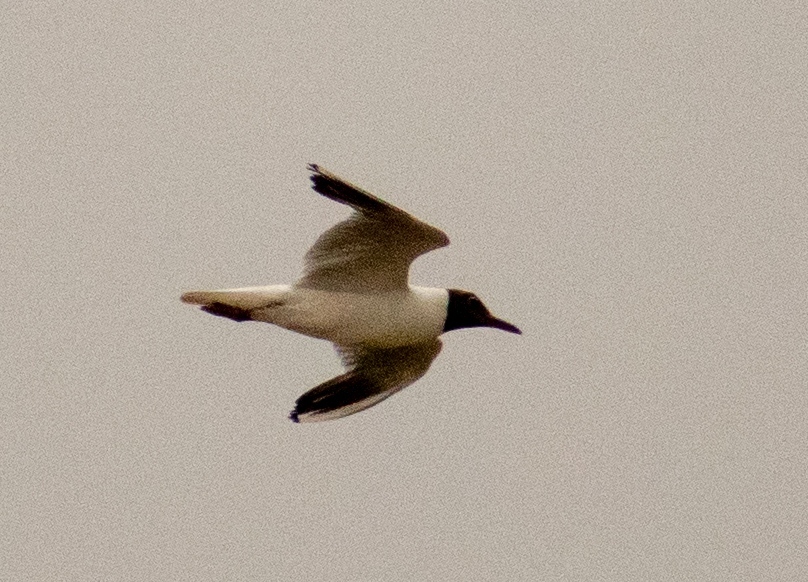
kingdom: Animalia
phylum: Chordata
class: Aves
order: Charadriiformes
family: Laridae
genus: Chroicocephalus
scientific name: Chroicocephalus ridibundus
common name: Black-headed gull
